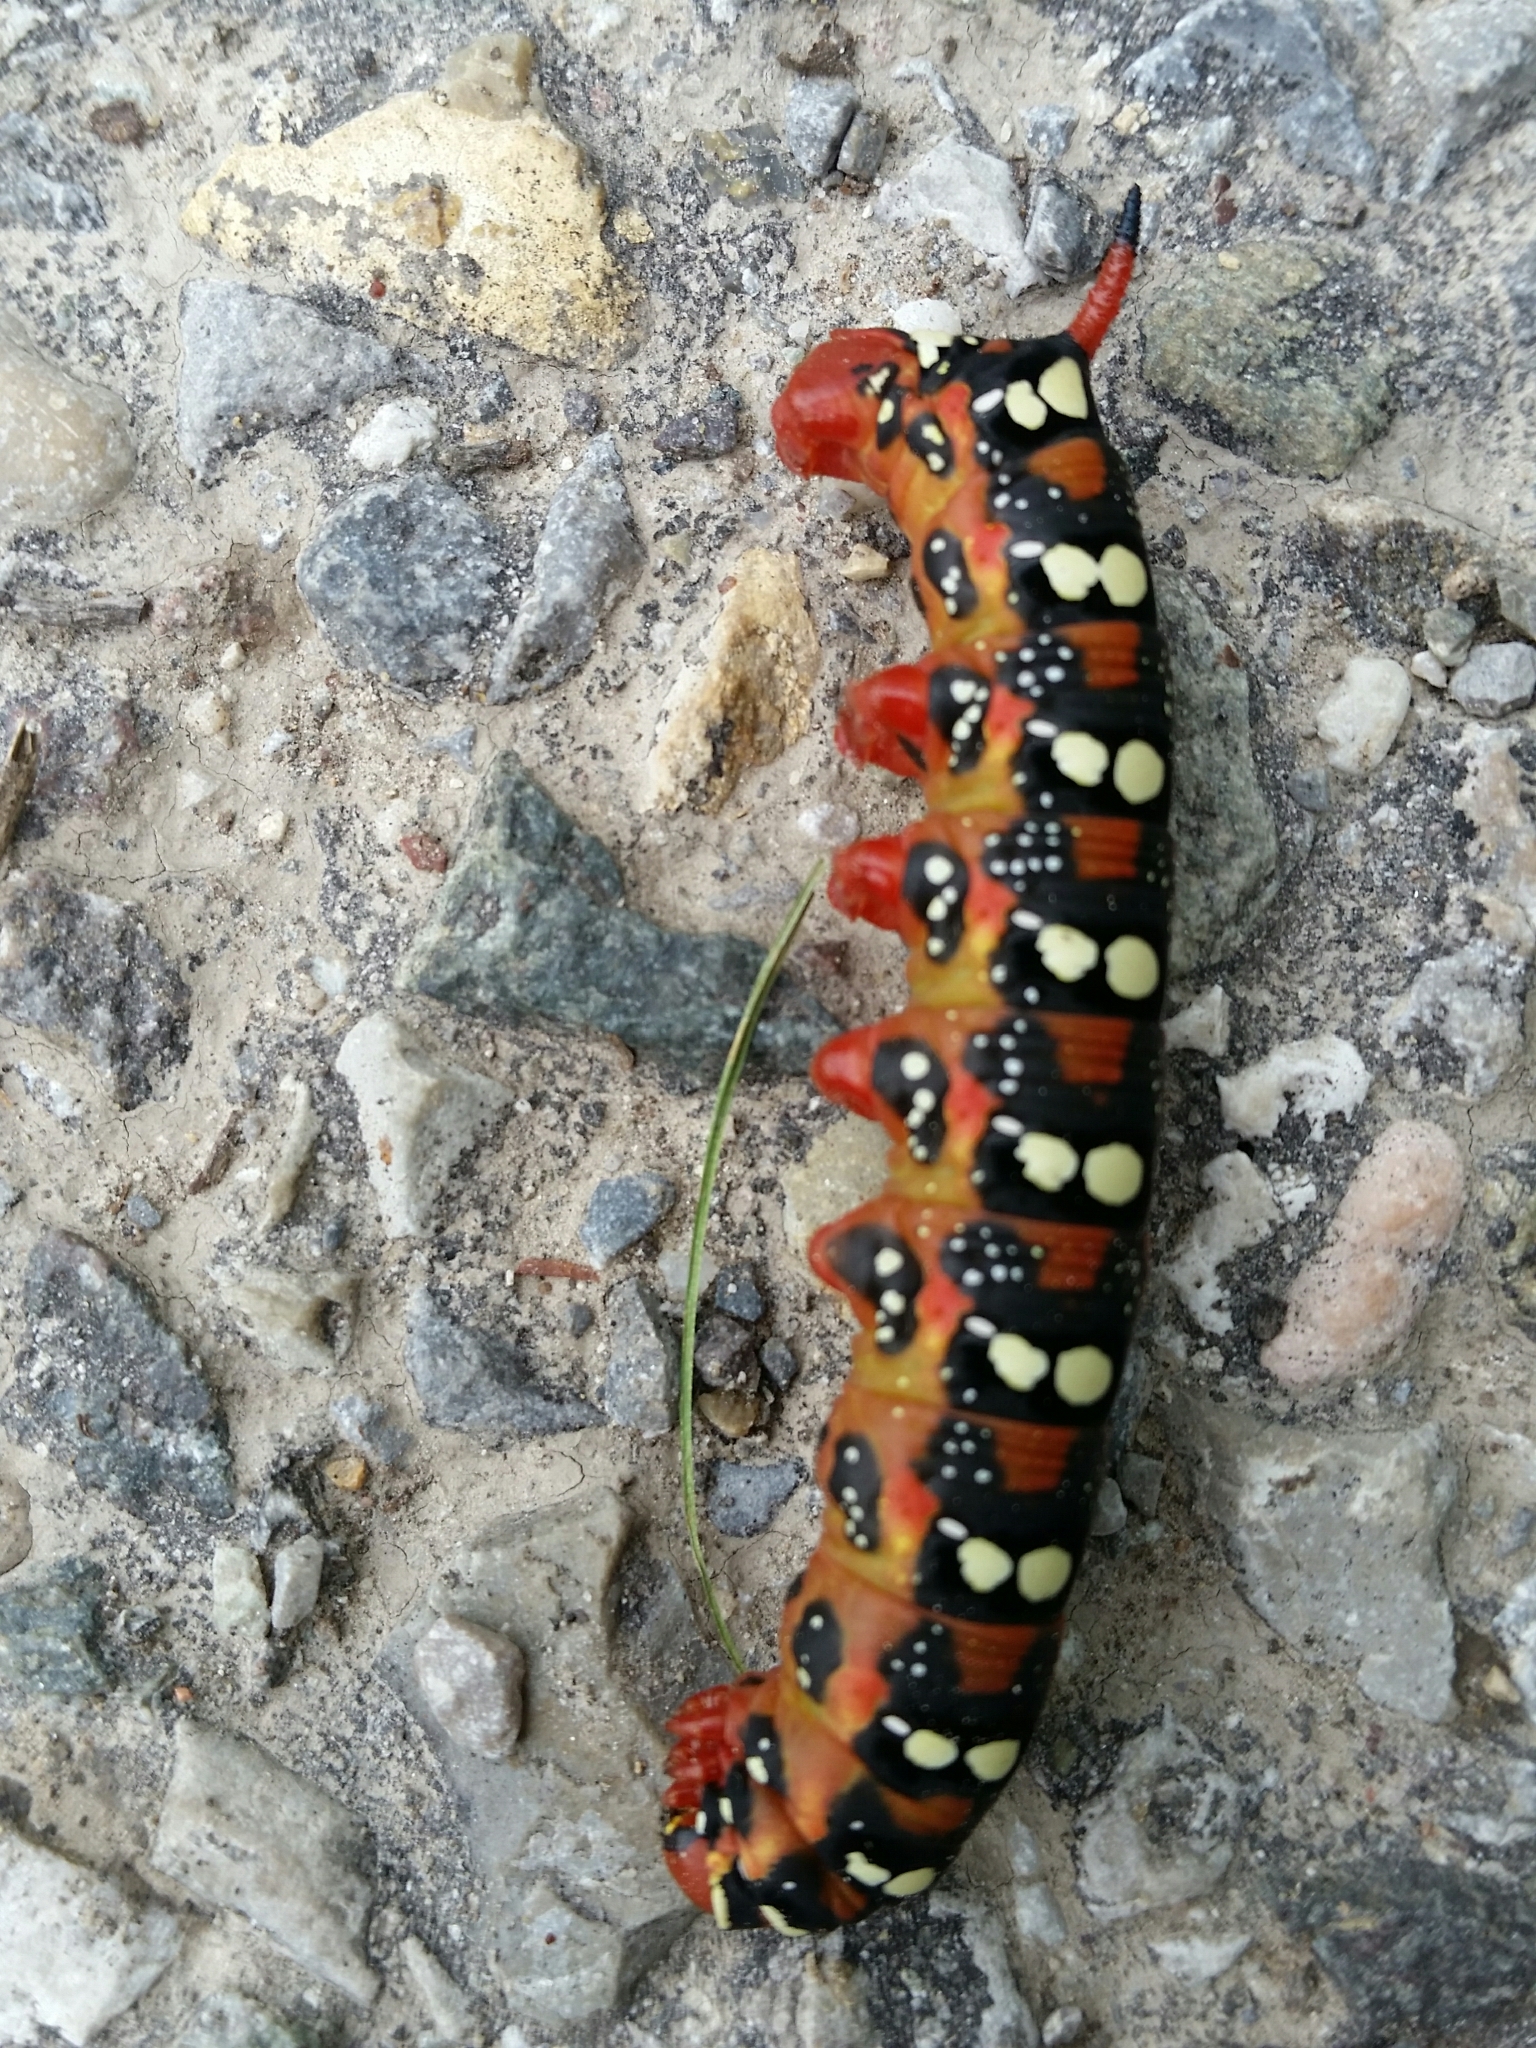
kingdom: Animalia
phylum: Arthropoda
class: Insecta
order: Lepidoptera
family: Sphingidae
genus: Hyles
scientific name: Hyles euphorbiae
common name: Spurge hawk-moth
